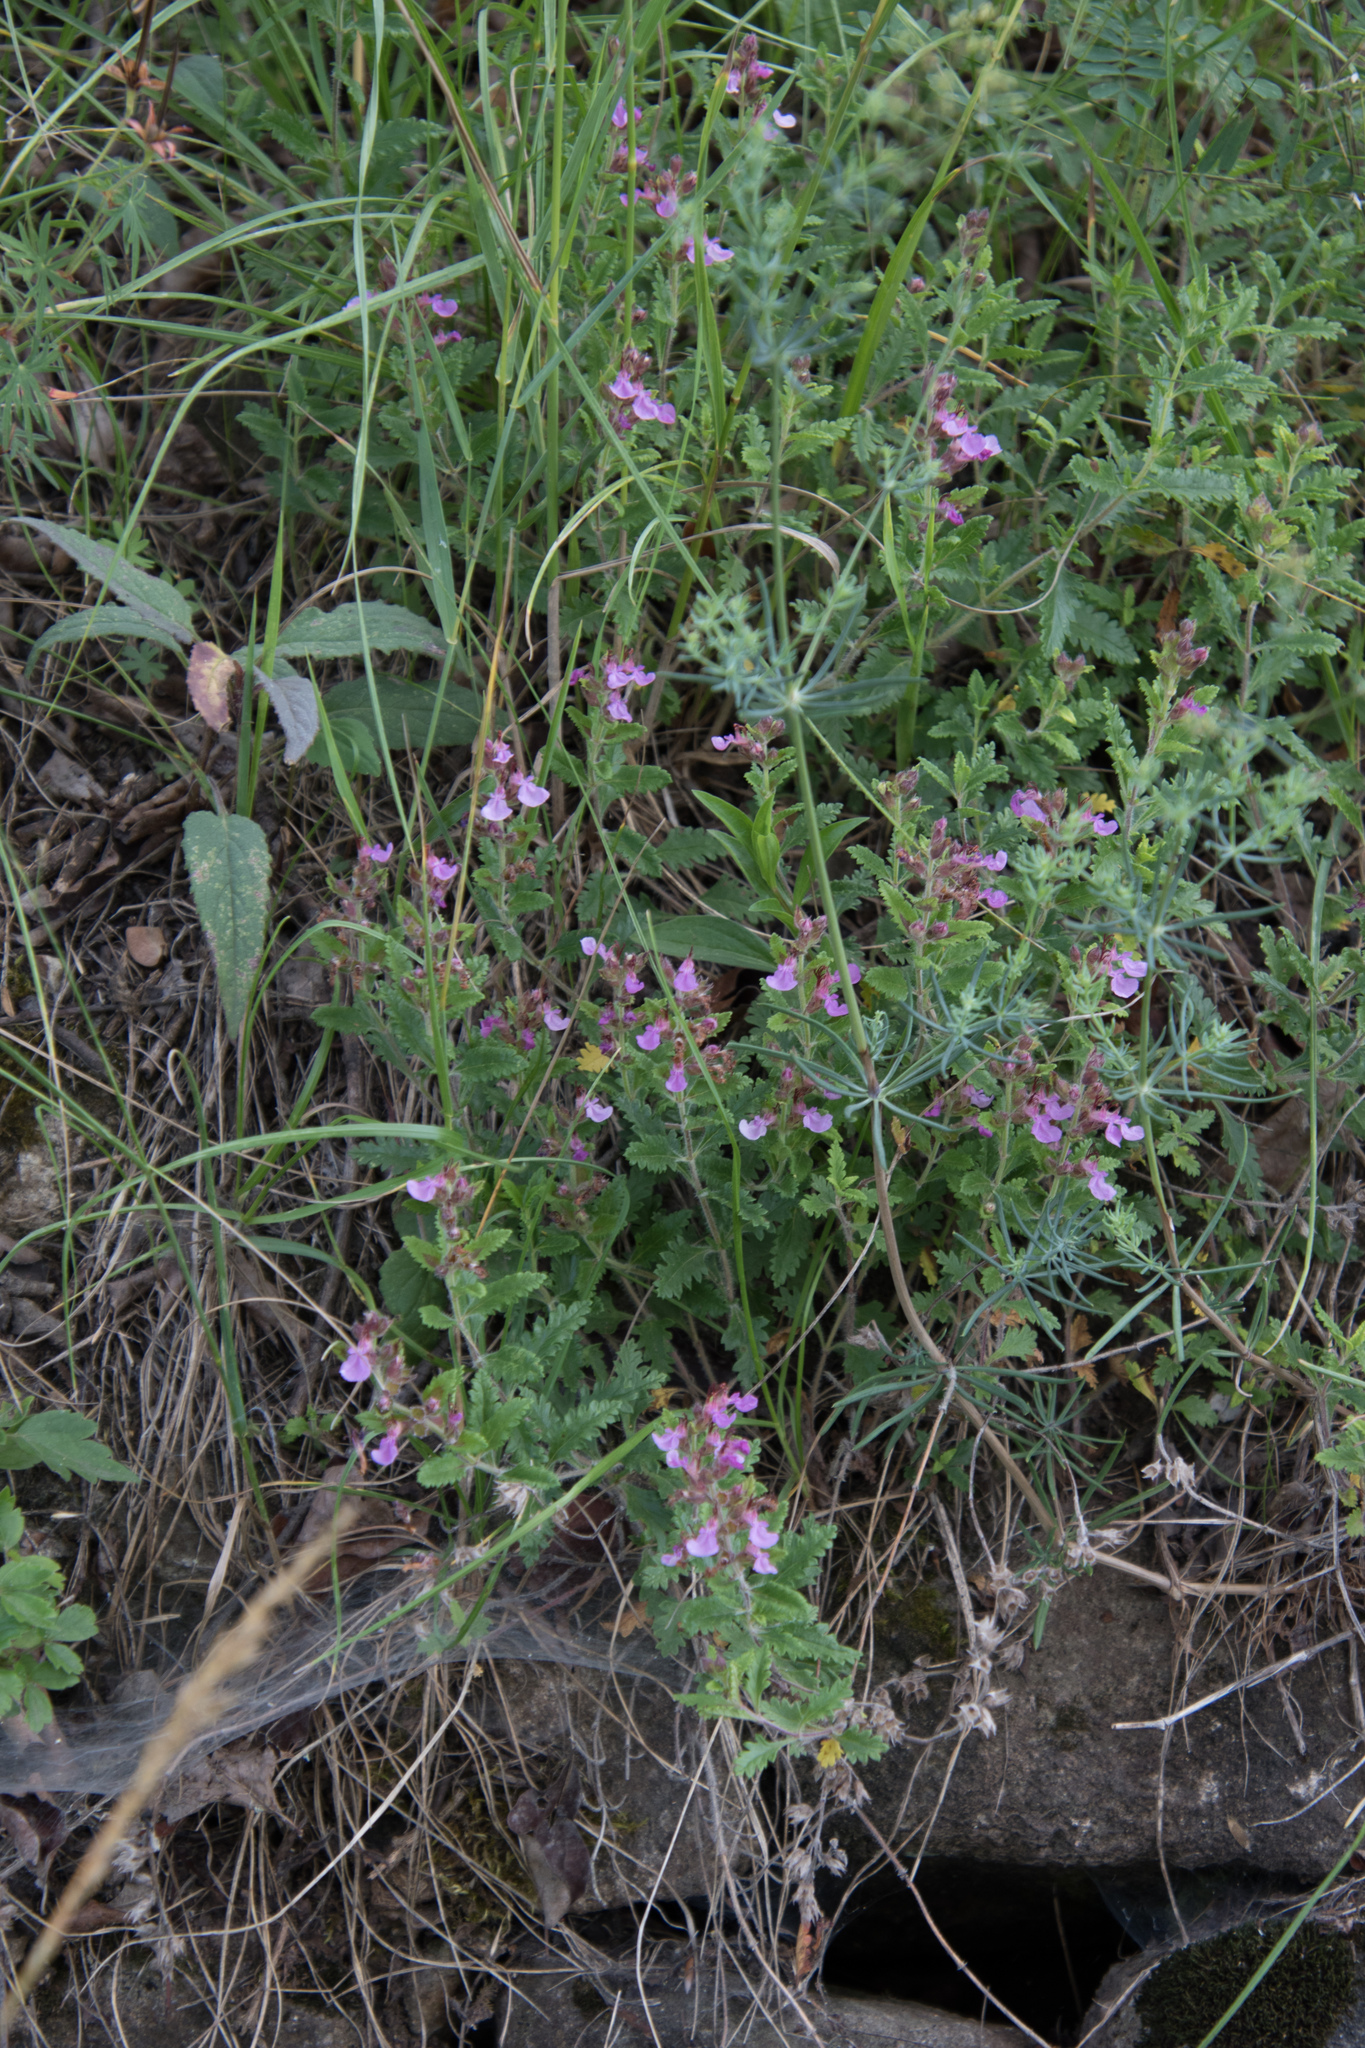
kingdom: Plantae
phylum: Tracheophyta
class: Magnoliopsida
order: Lamiales
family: Lamiaceae
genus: Teucrium
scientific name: Teucrium chamaedrys
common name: Wall germander
